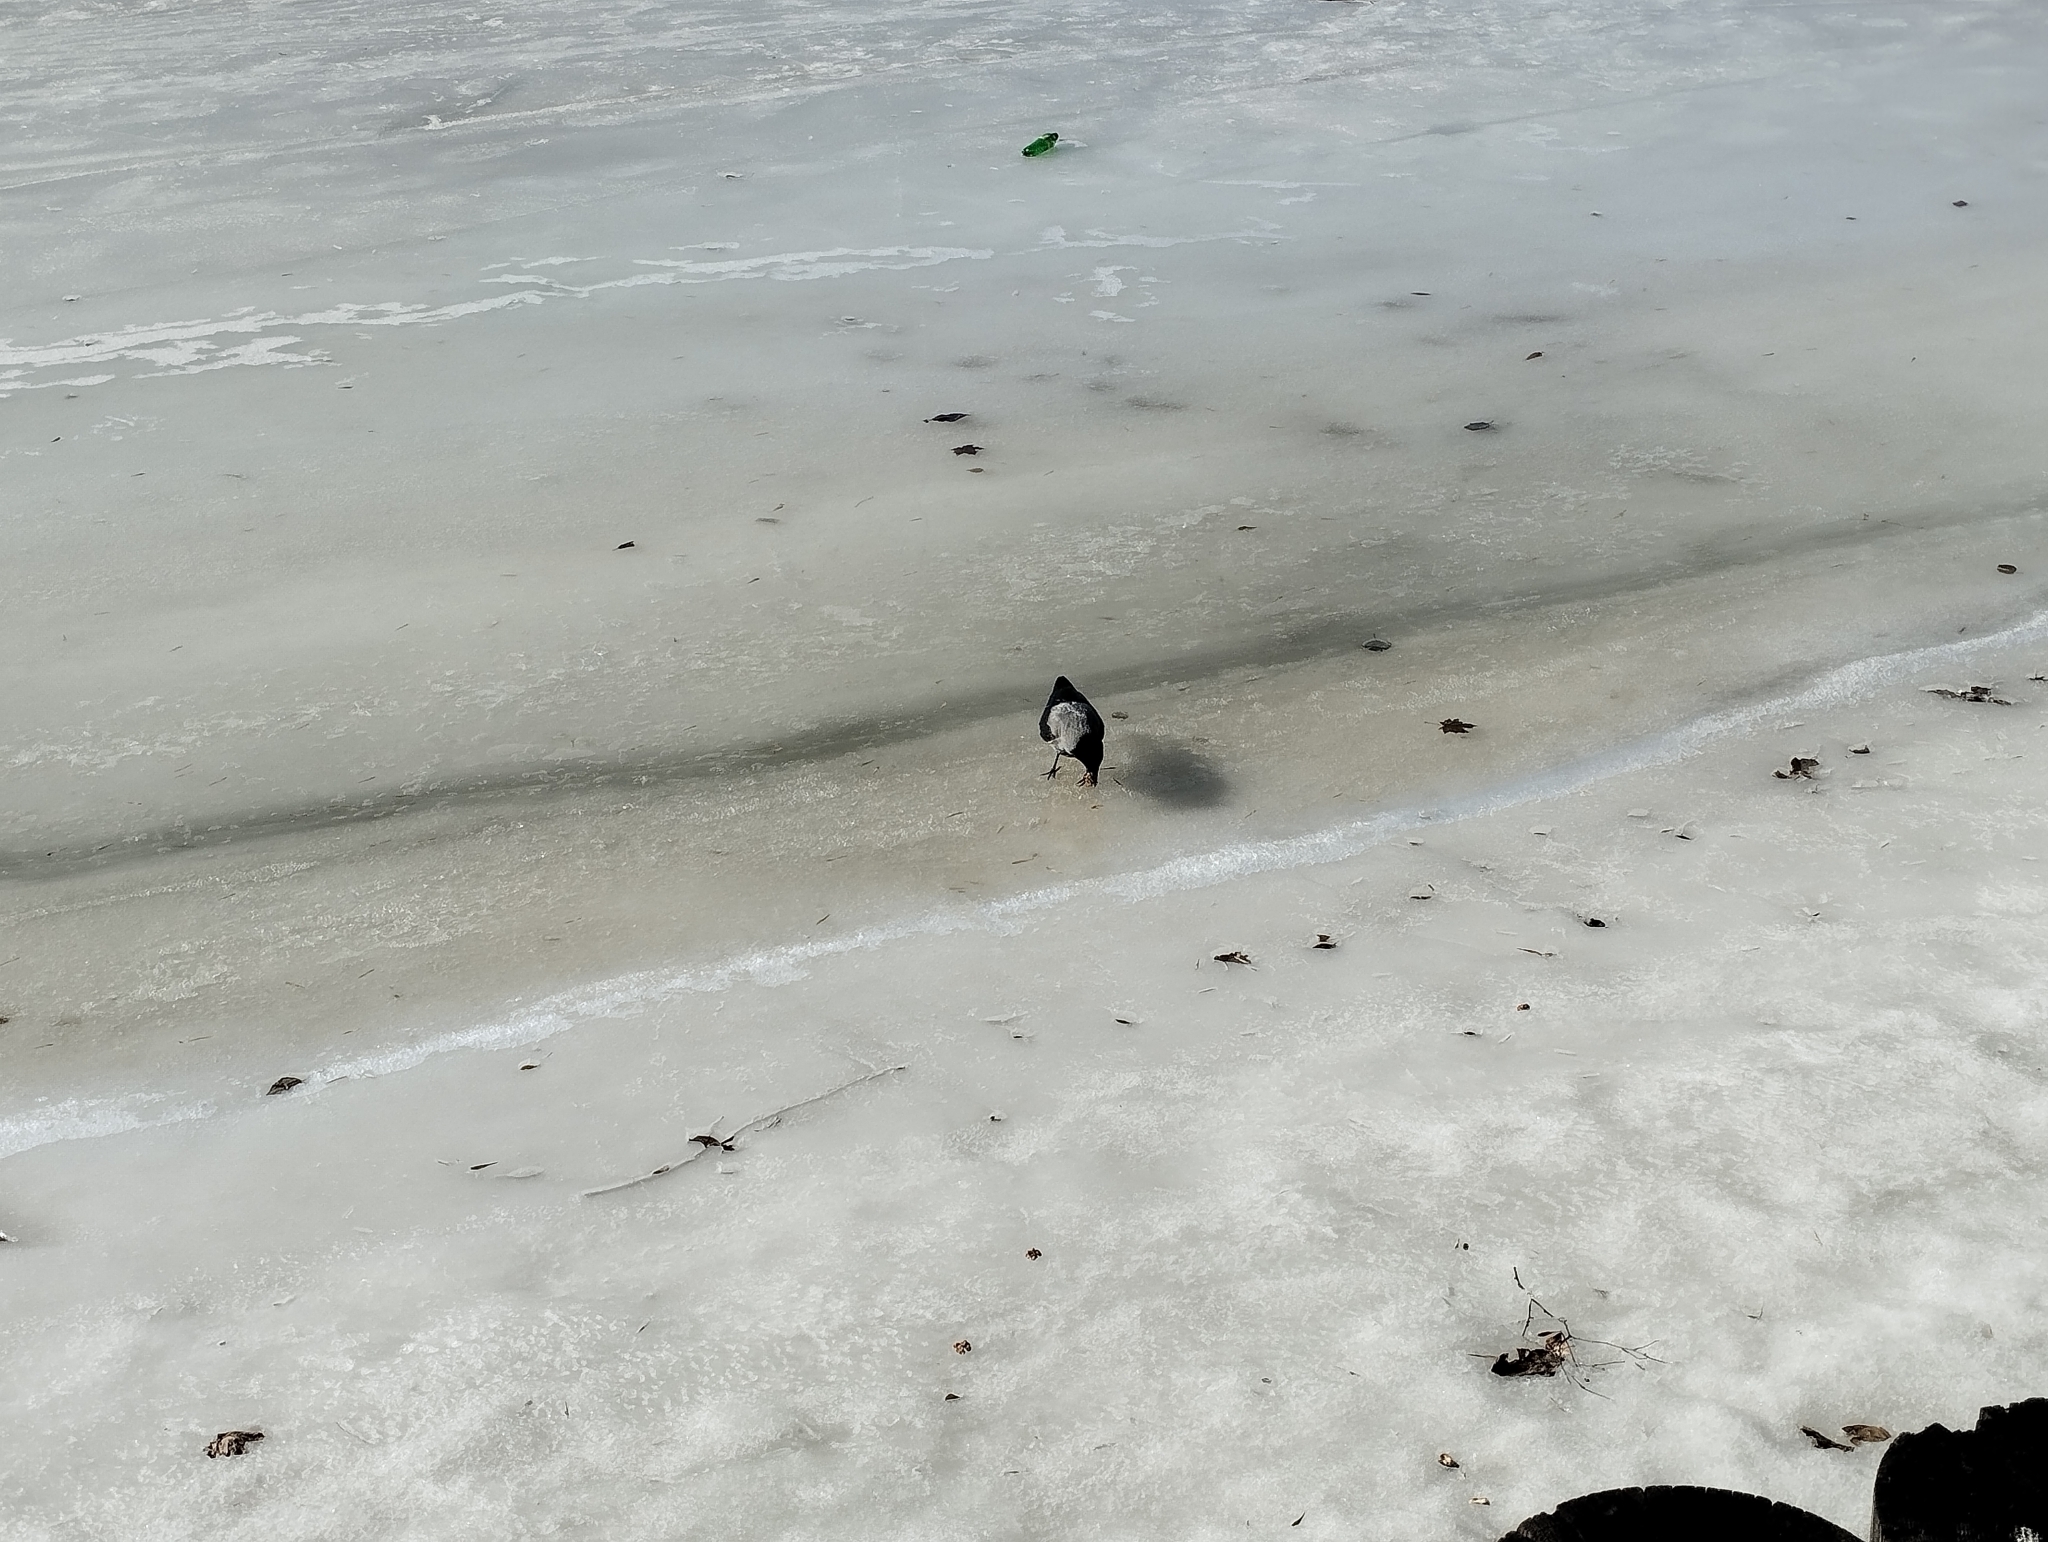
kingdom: Animalia
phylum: Chordata
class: Aves
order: Passeriformes
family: Corvidae
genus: Corvus
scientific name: Corvus cornix
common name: Hooded crow
